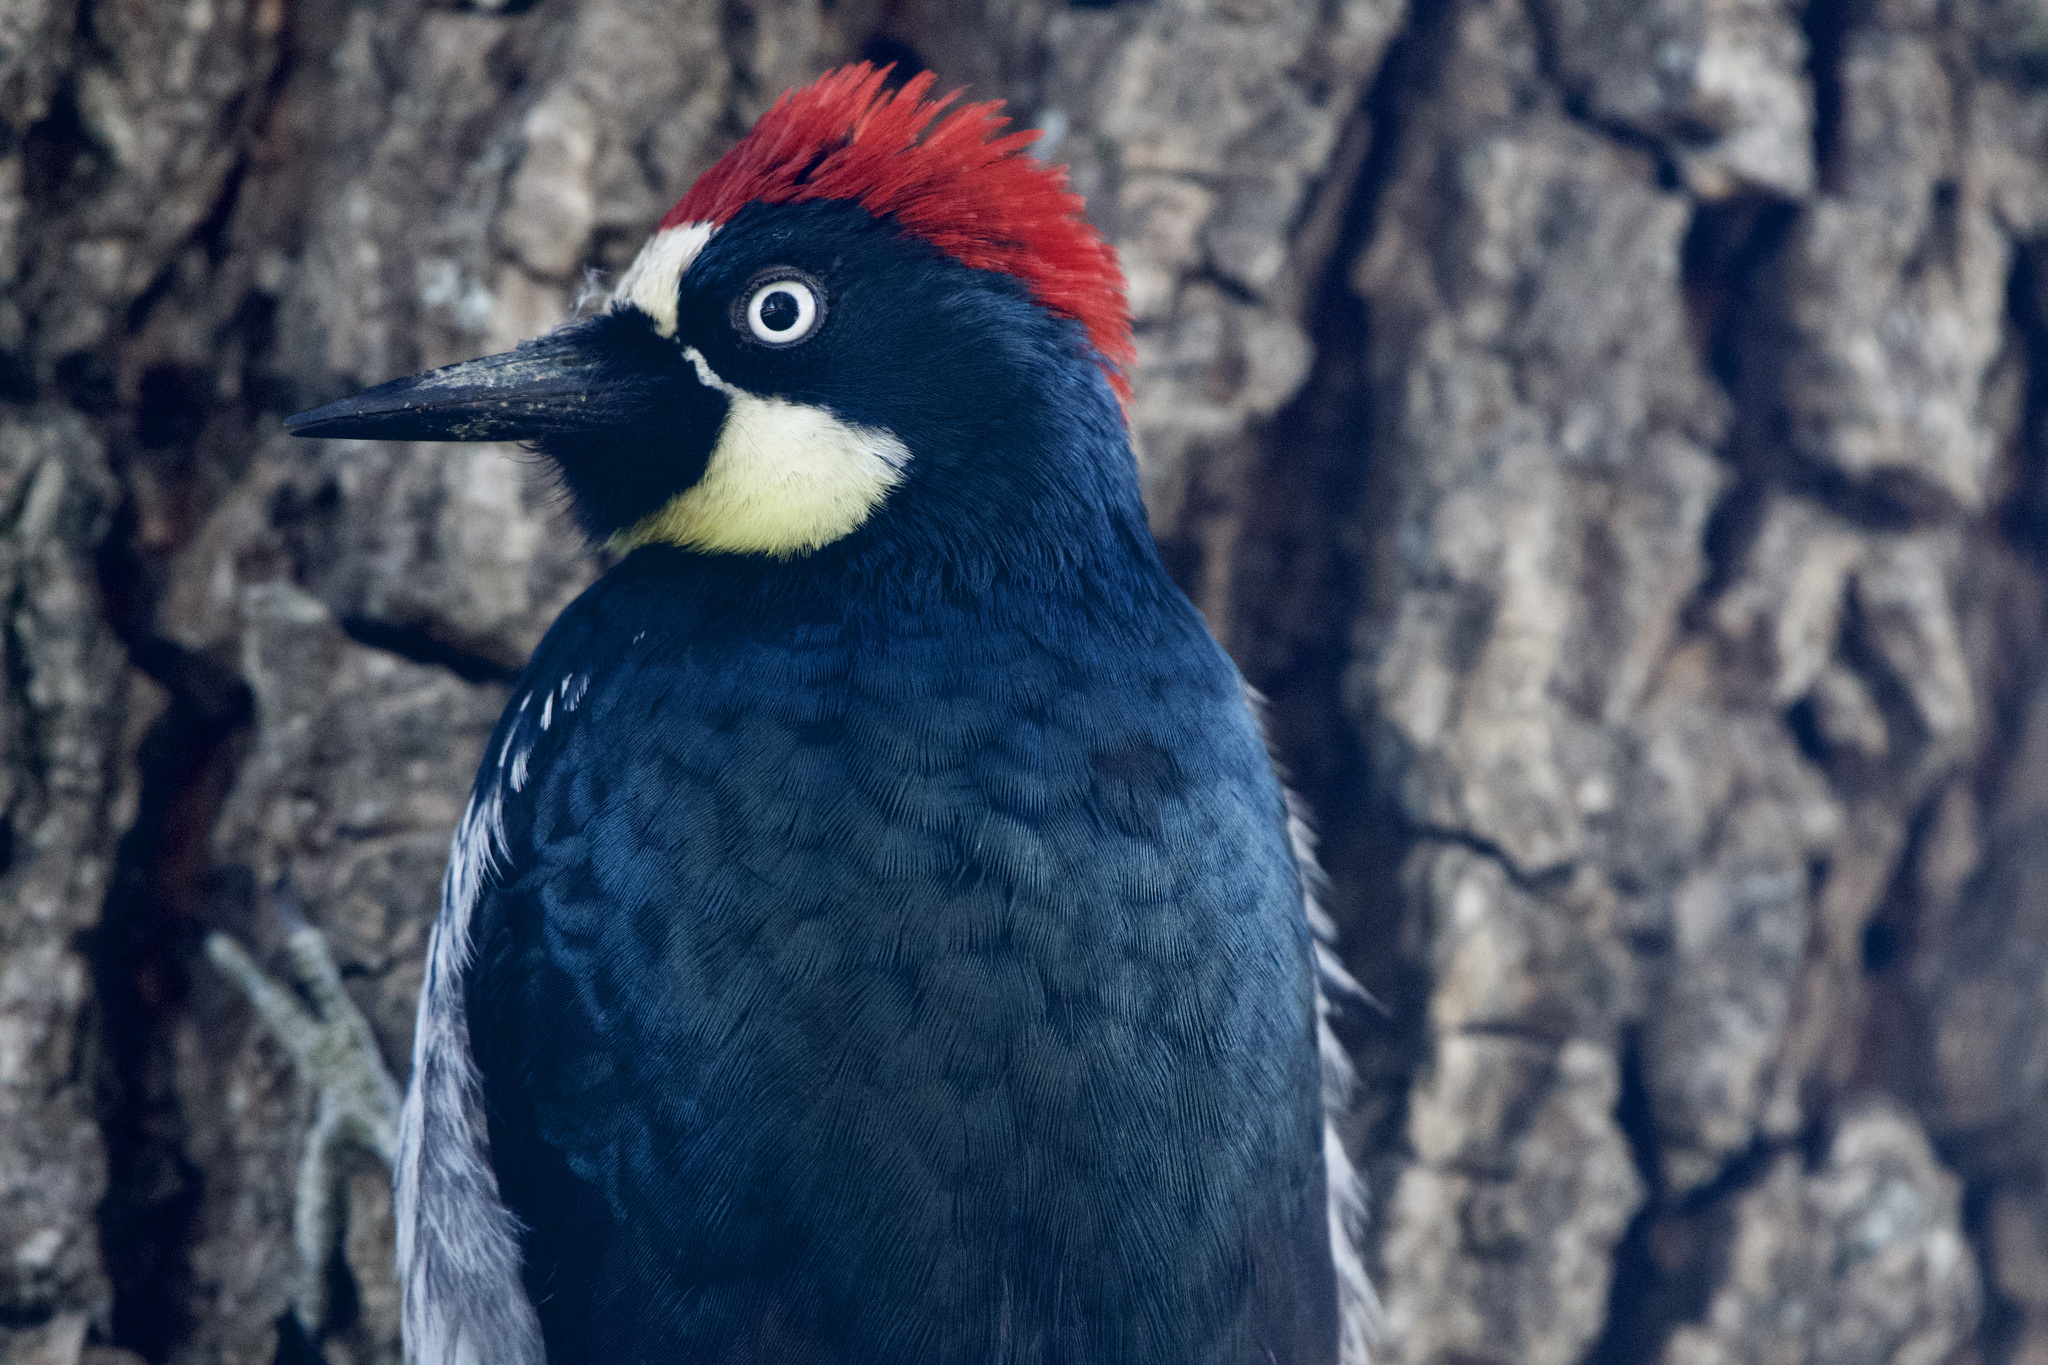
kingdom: Animalia
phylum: Chordata
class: Aves
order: Piciformes
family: Picidae
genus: Melanerpes
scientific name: Melanerpes formicivorus
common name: Acorn woodpecker
